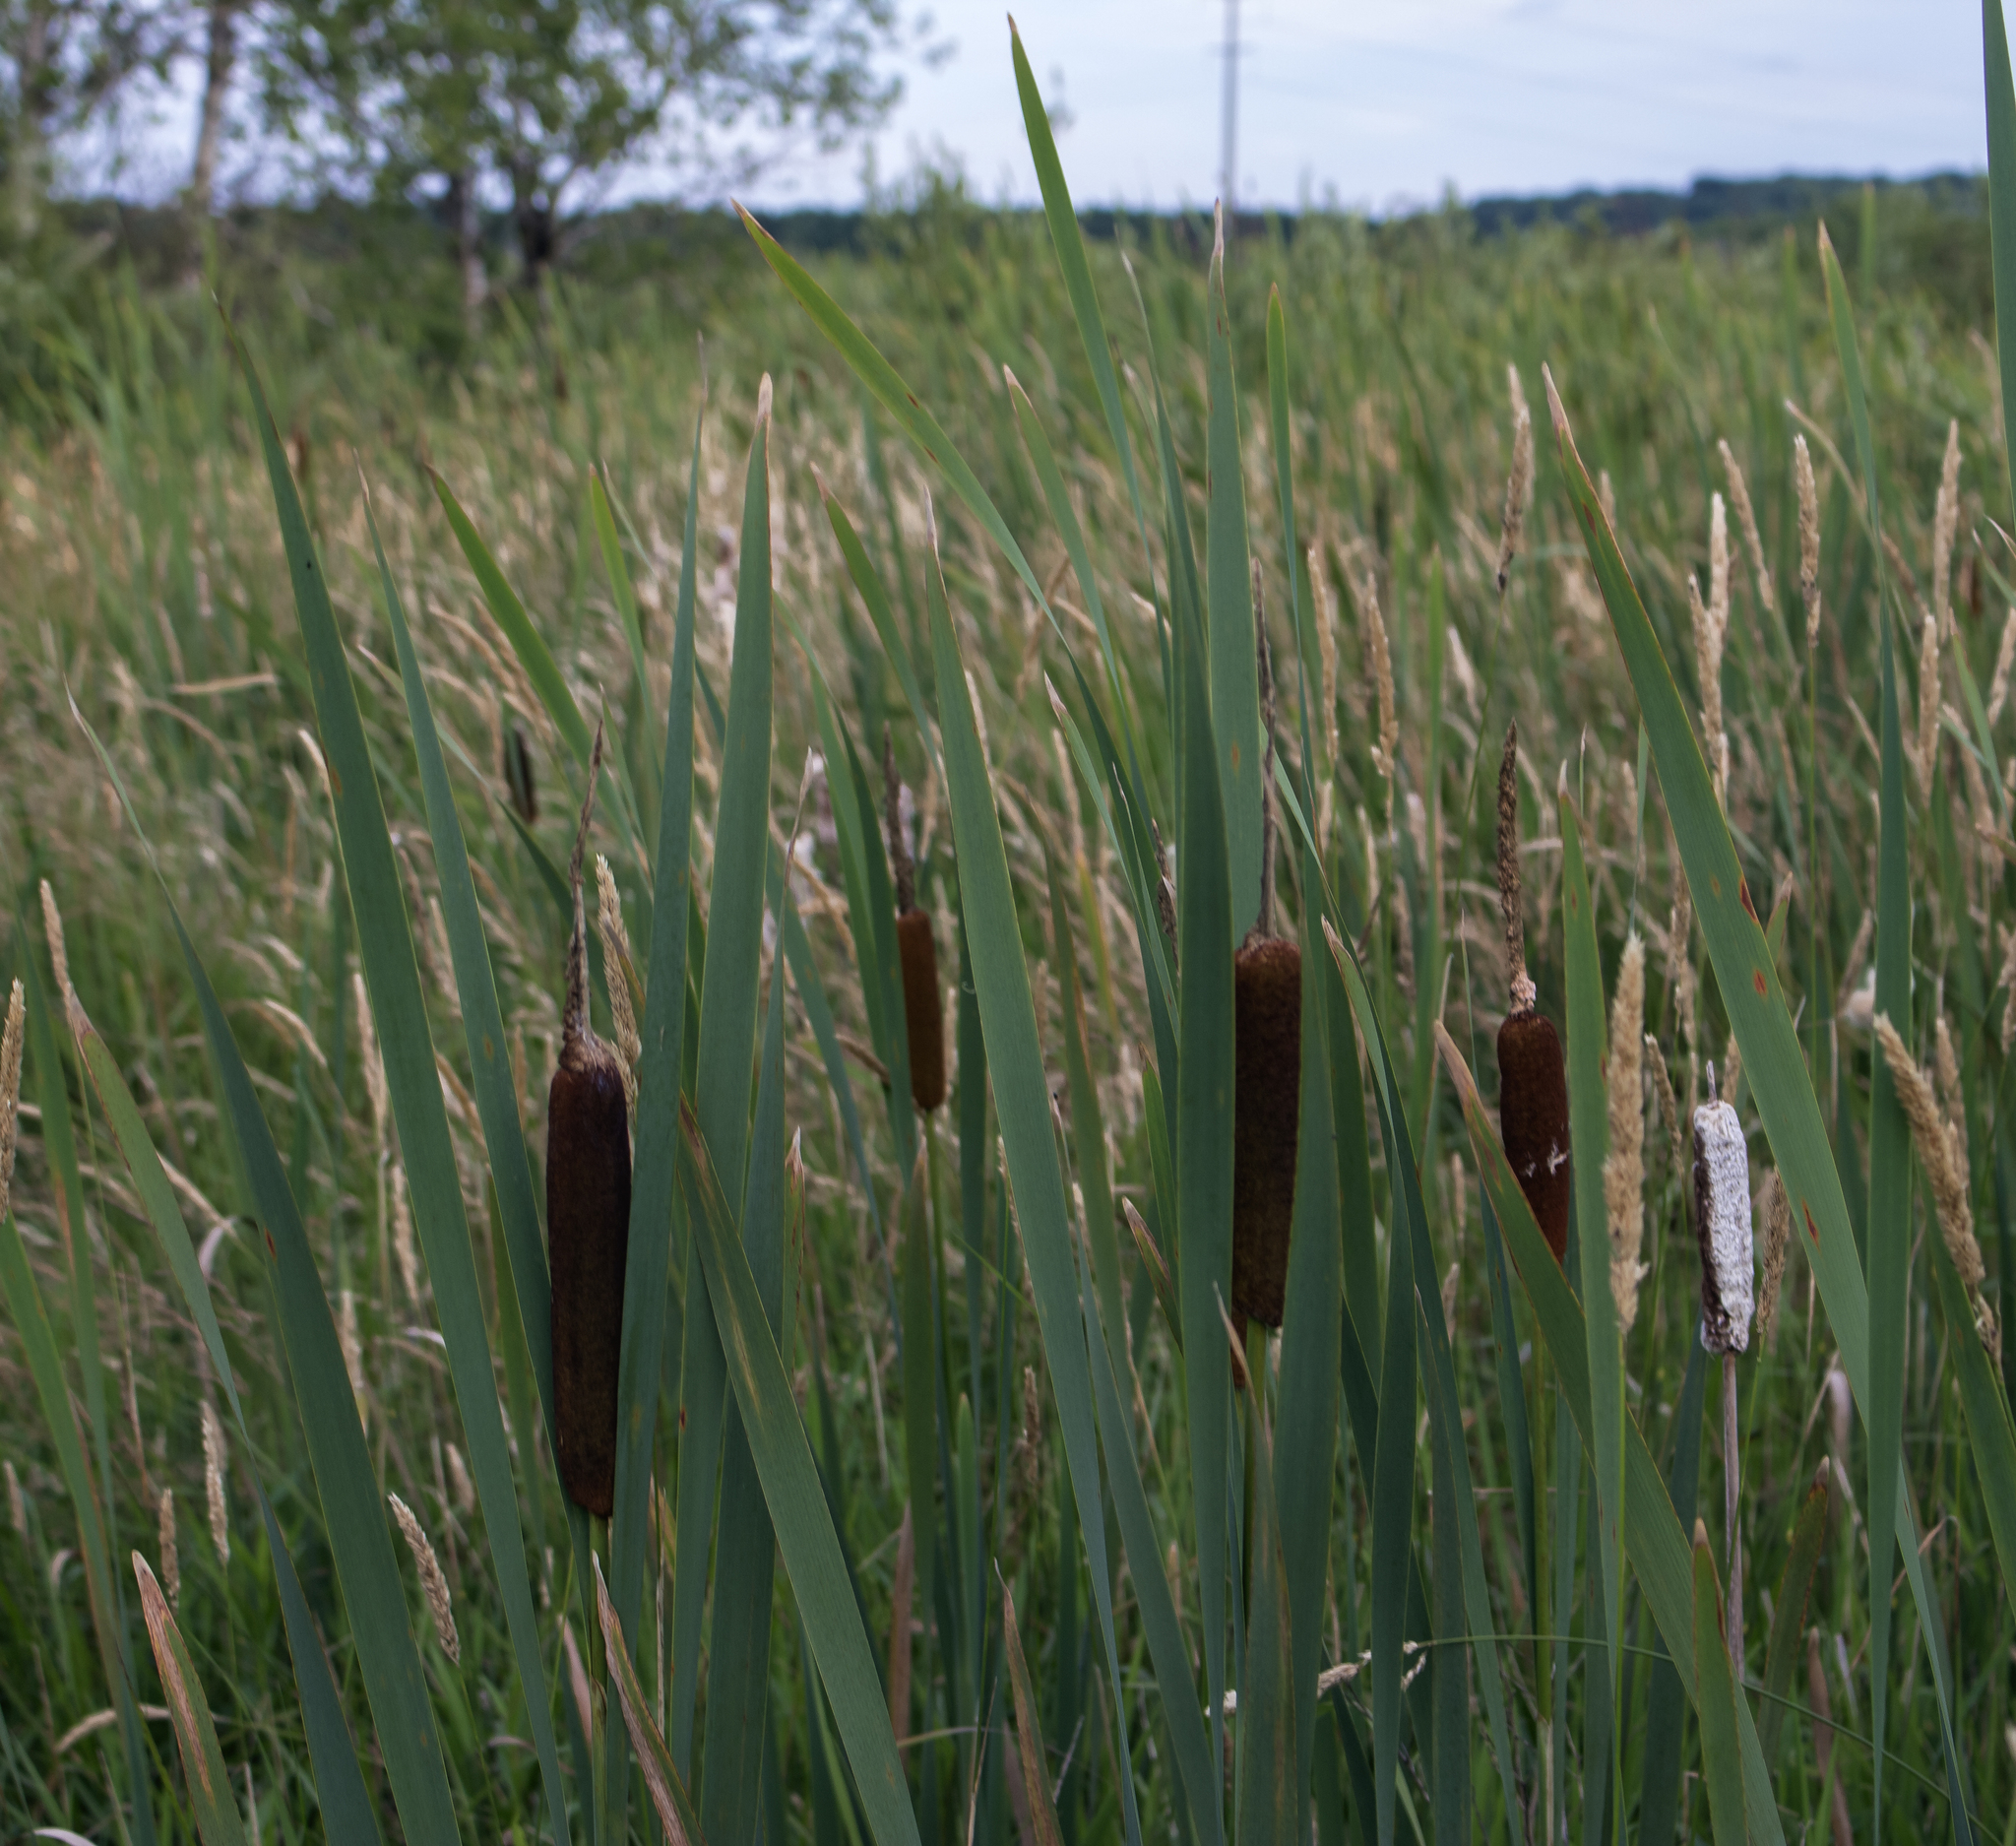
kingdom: Plantae
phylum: Tracheophyta
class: Liliopsida
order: Poales
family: Typhaceae
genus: Typha
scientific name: Typha latifolia
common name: Broadleaf cattail
